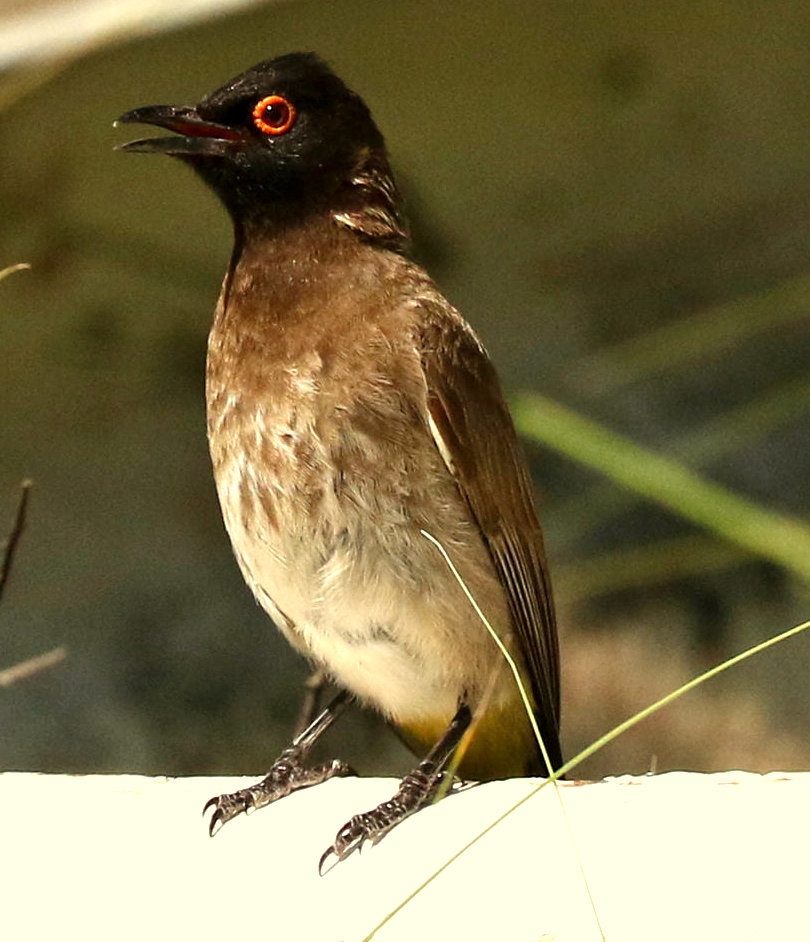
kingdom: Animalia
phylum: Chordata
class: Aves
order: Passeriformes
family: Pycnonotidae
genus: Pycnonotus
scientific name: Pycnonotus nigricans
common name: African red-eyed bulbul
